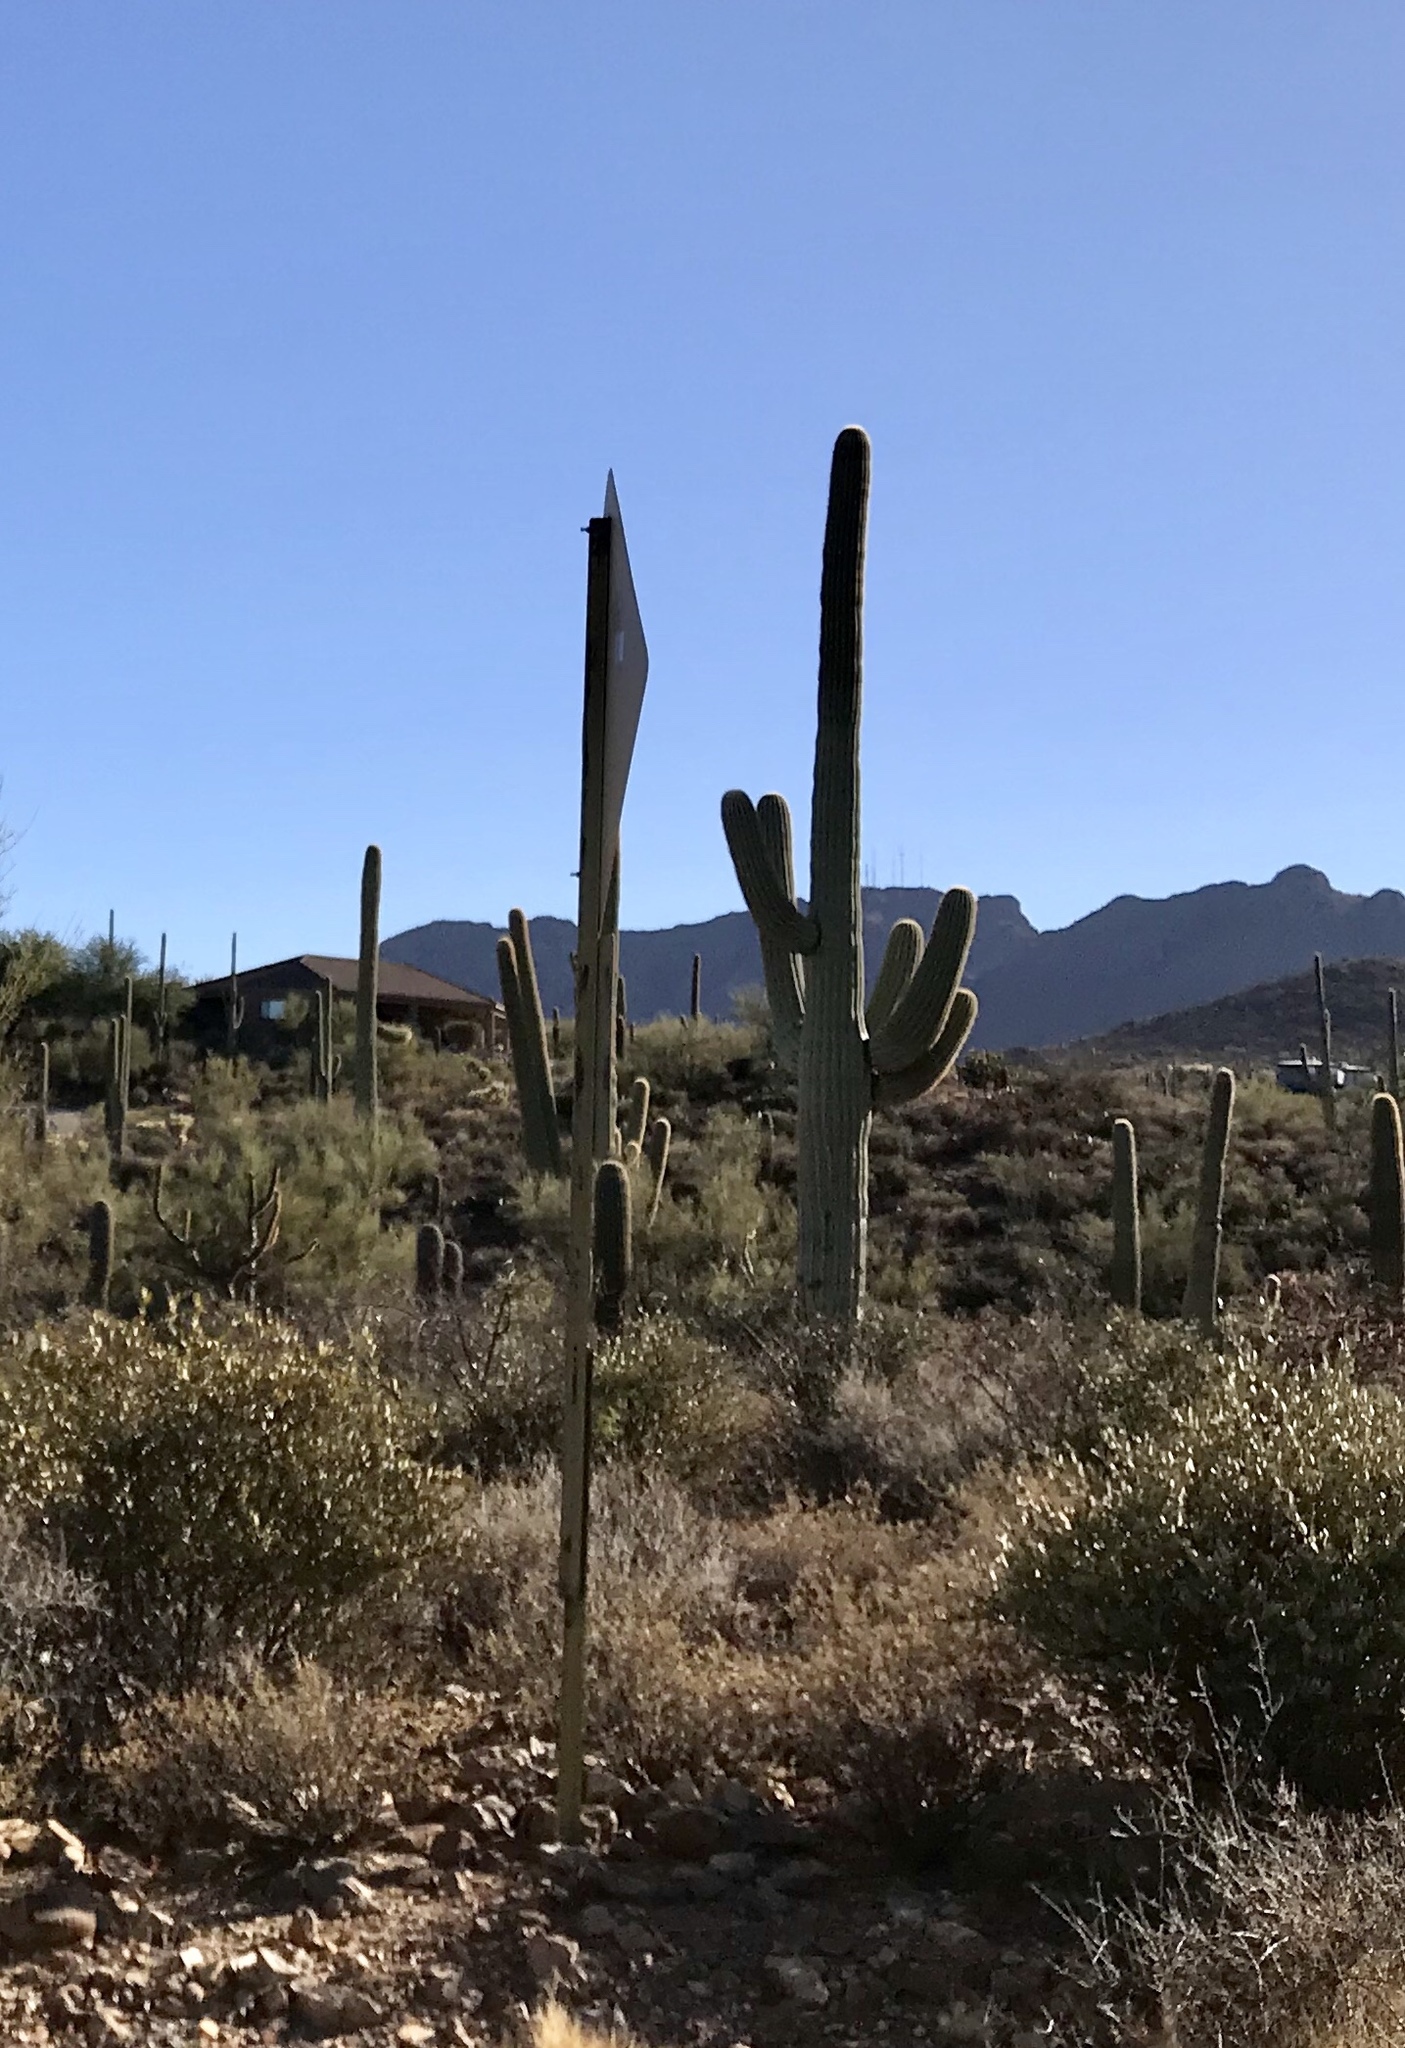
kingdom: Plantae
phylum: Tracheophyta
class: Magnoliopsida
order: Caryophyllales
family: Cactaceae
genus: Carnegiea
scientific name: Carnegiea gigantea
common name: Saguaro
